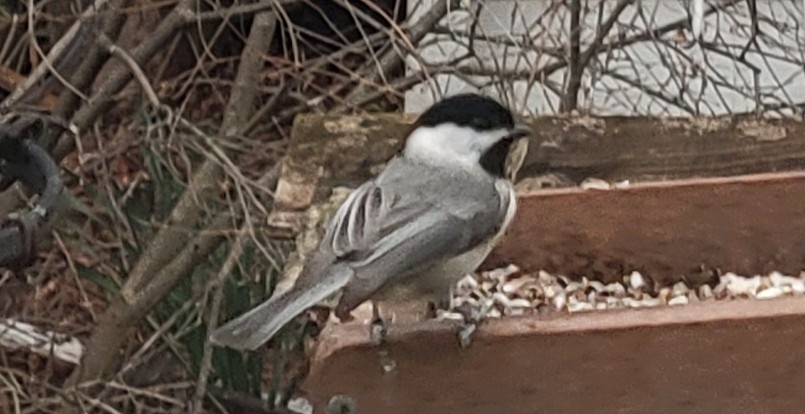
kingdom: Animalia
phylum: Chordata
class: Aves
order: Passeriformes
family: Paridae
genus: Poecile
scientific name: Poecile carolinensis
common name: Carolina chickadee
